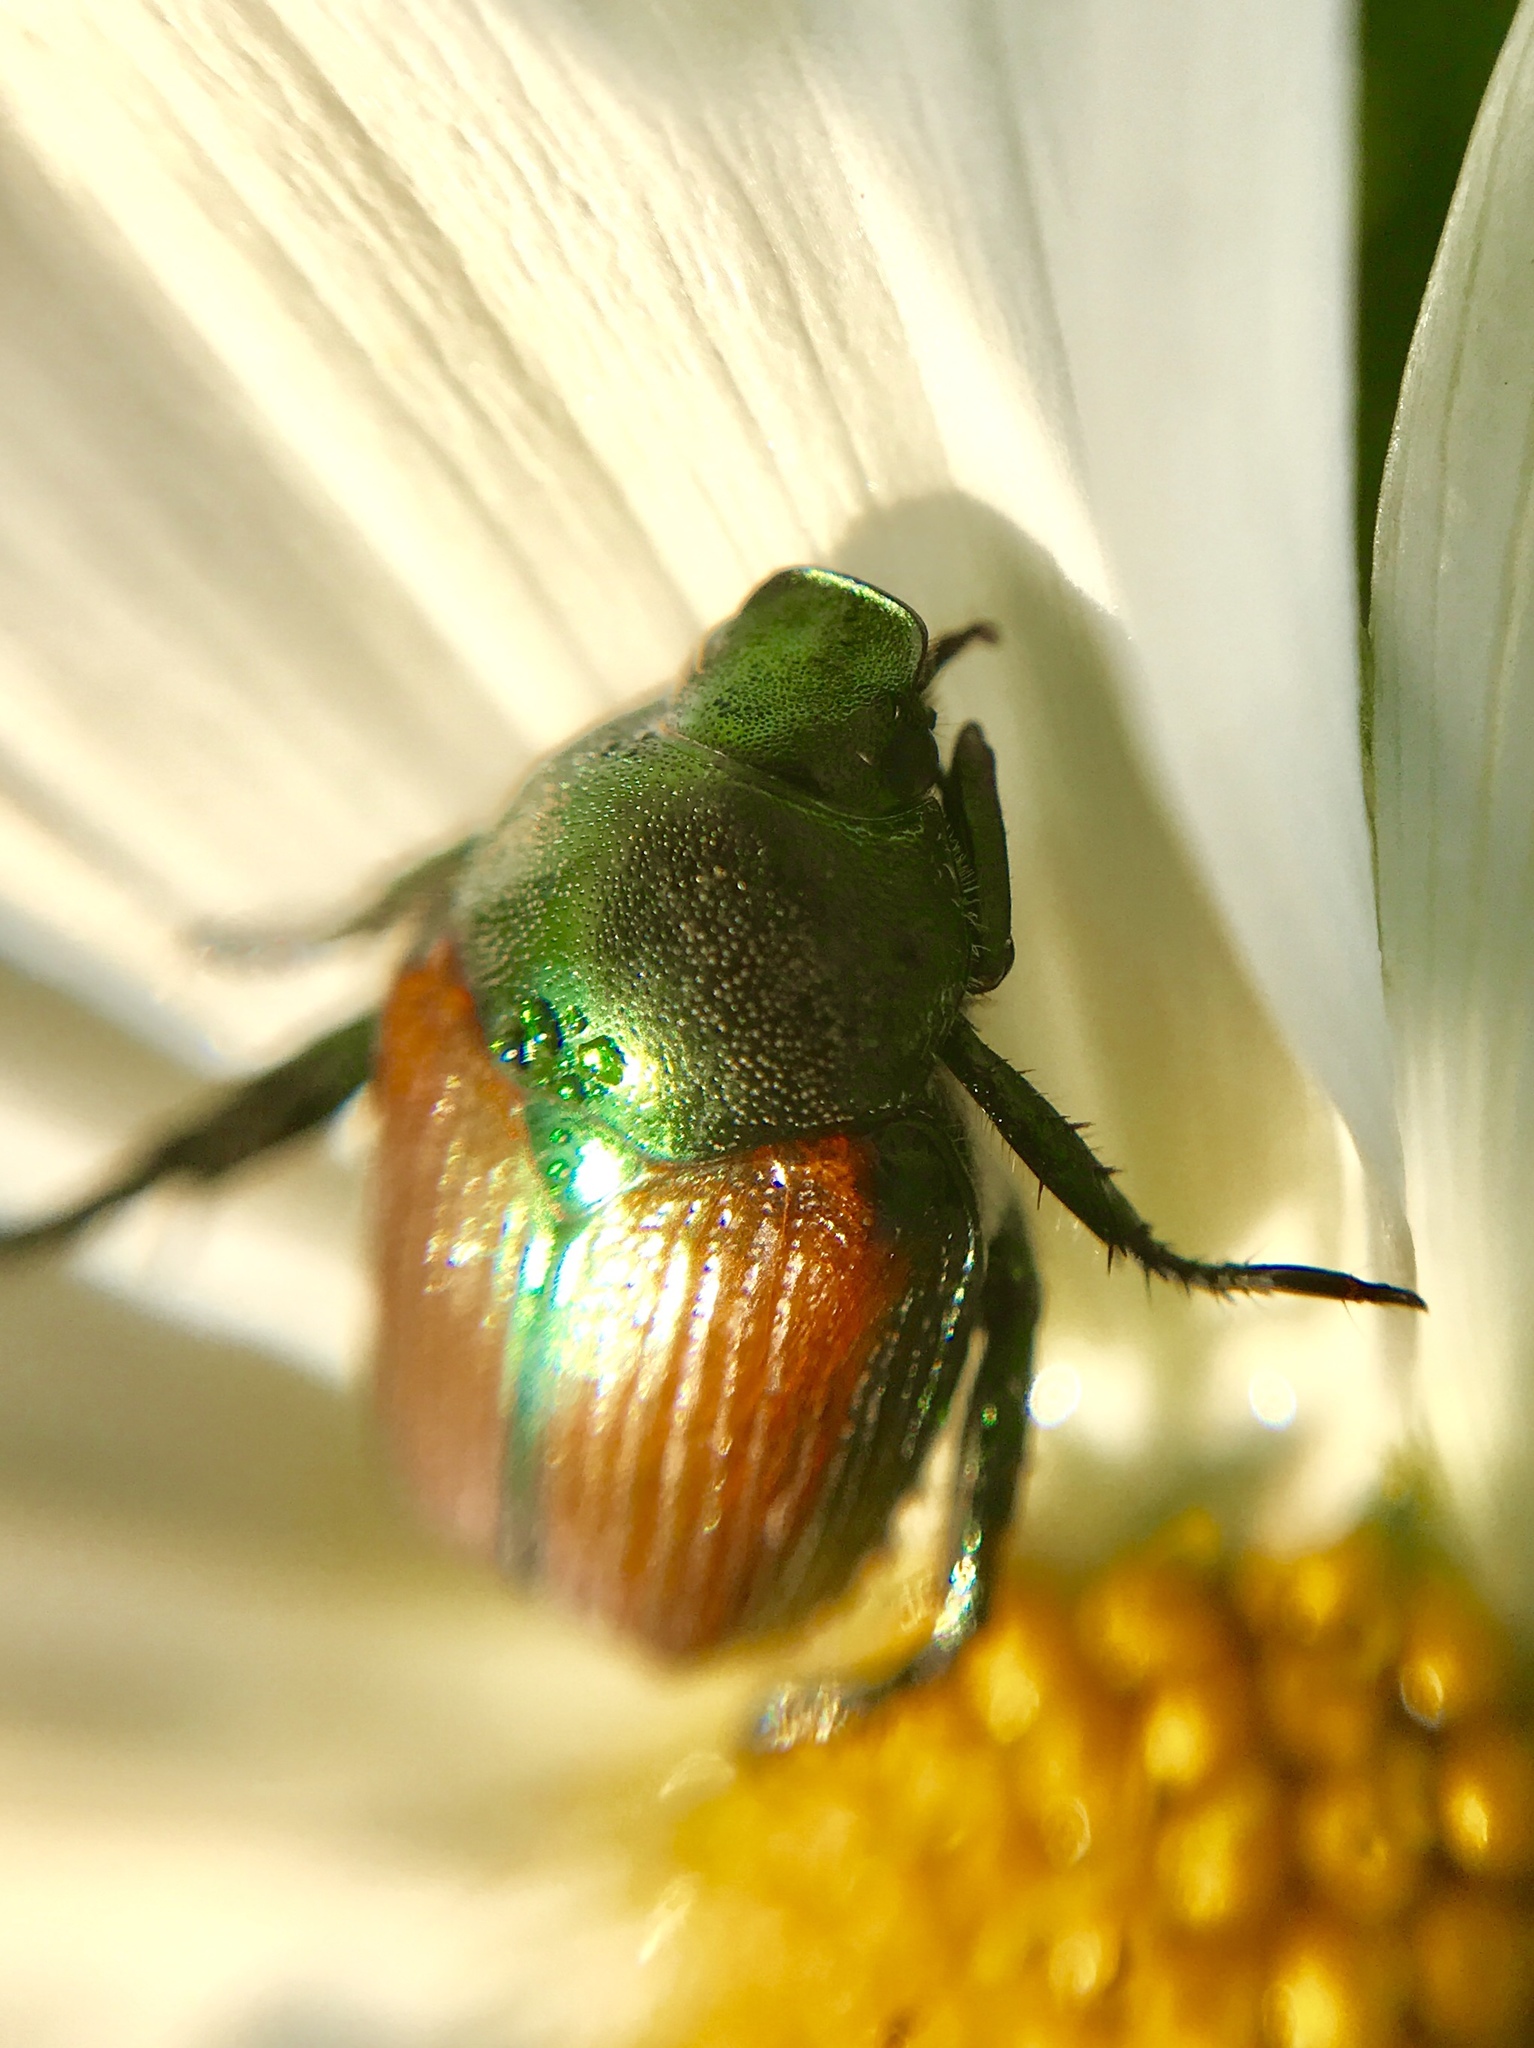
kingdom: Animalia
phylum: Arthropoda
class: Insecta
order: Coleoptera
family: Scarabaeidae
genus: Popillia
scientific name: Popillia japonica
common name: Japanese beetle
